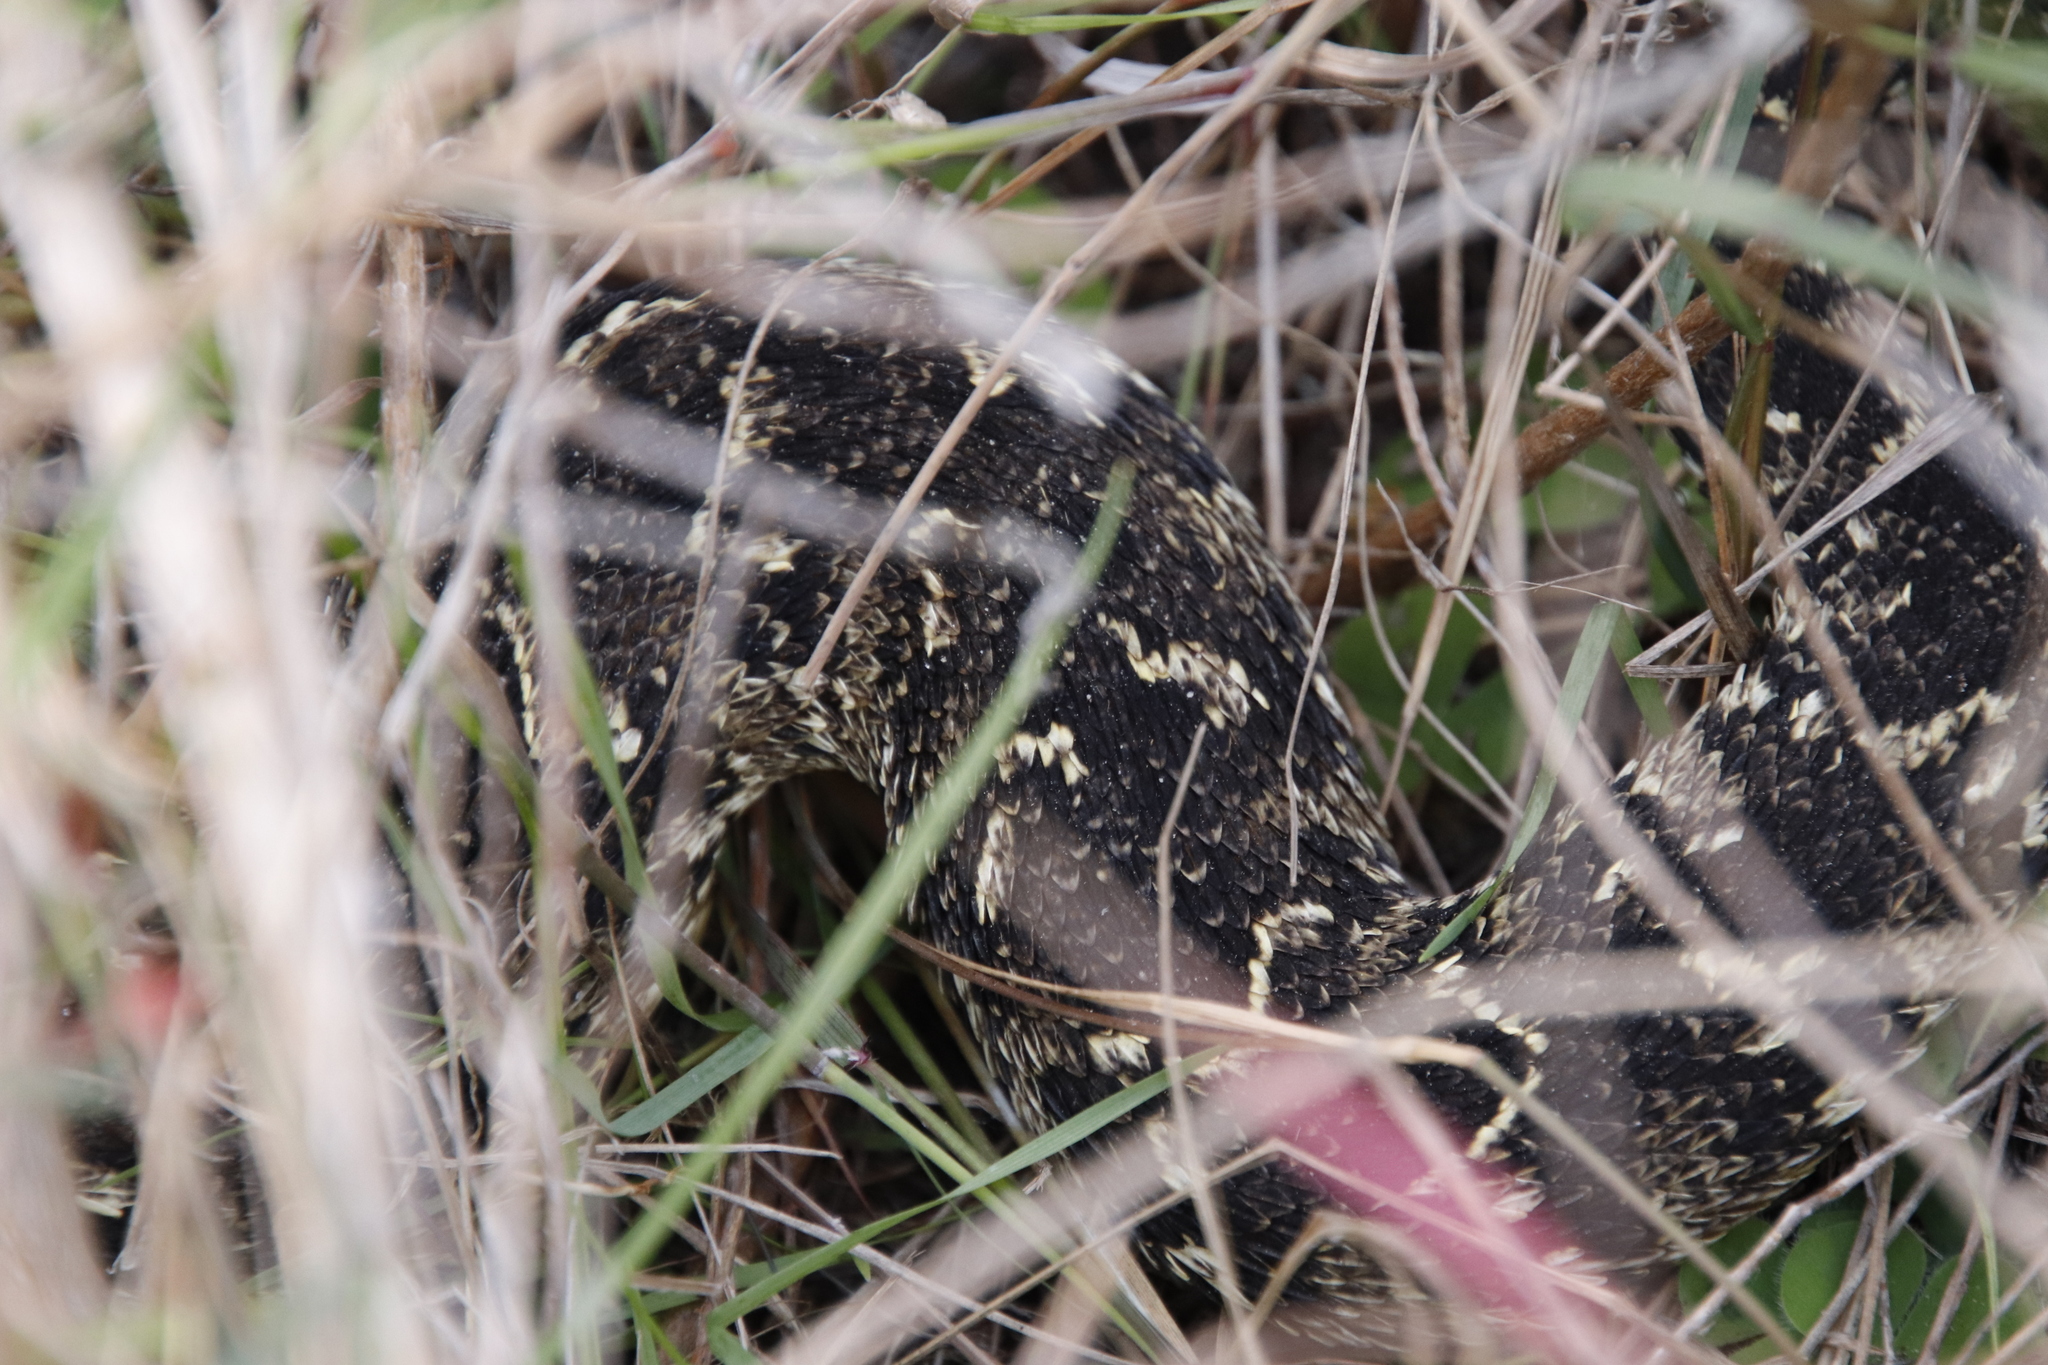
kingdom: Animalia
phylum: Chordata
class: Squamata
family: Viperidae
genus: Bitis
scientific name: Bitis arietans
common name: Puff adder
